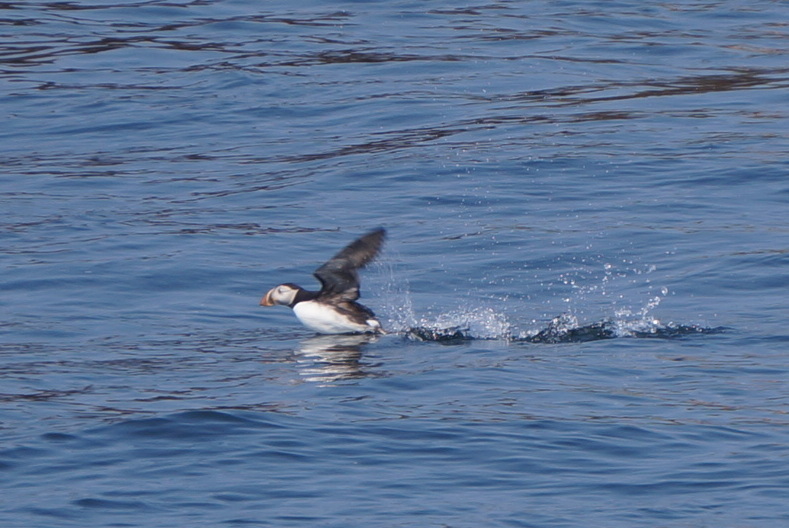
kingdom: Animalia
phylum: Chordata
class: Aves
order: Charadriiformes
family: Alcidae
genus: Fratercula
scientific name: Fratercula arctica
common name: Atlantic puffin
